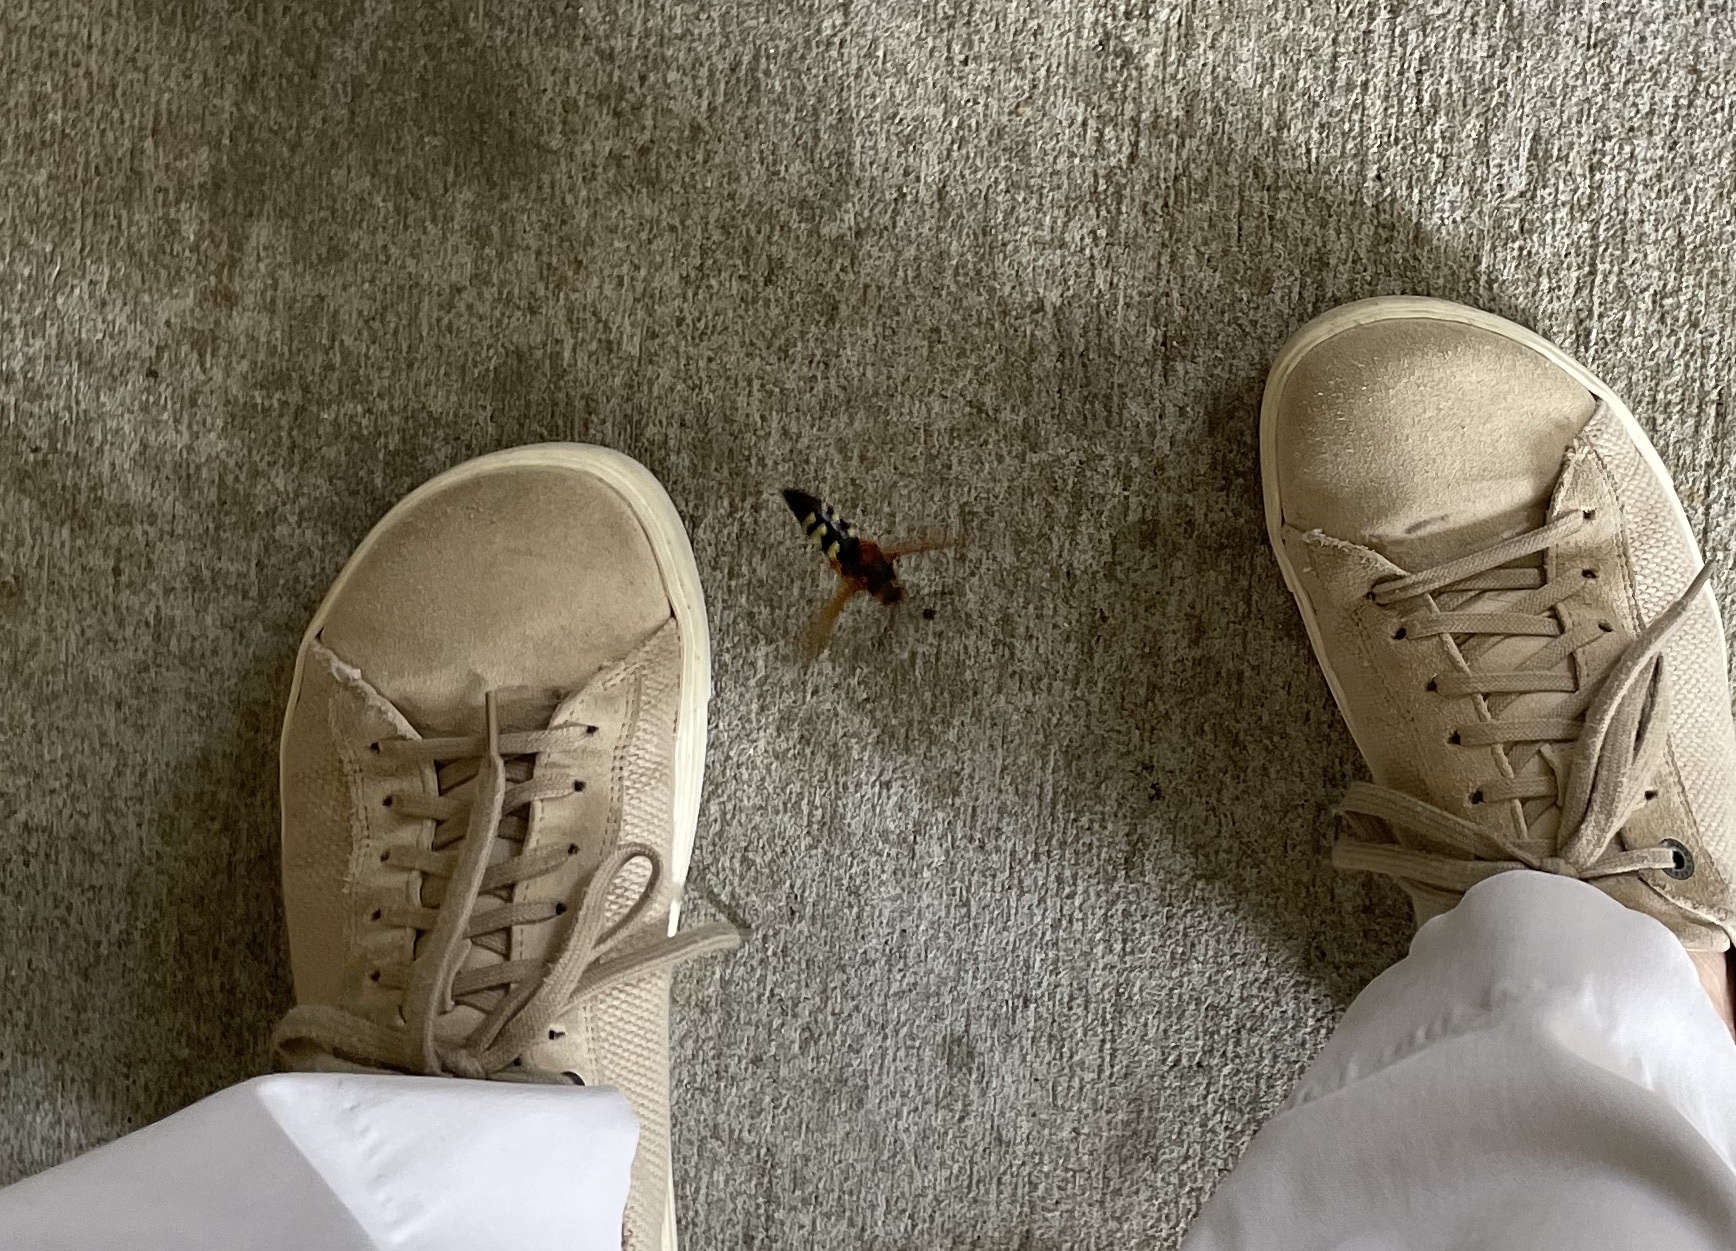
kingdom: Animalia
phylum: Arthropoda
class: Insecta
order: Hymenoptera
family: Crabronidae
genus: Sphecius
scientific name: Sphecius speciosus
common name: Cicada killer
